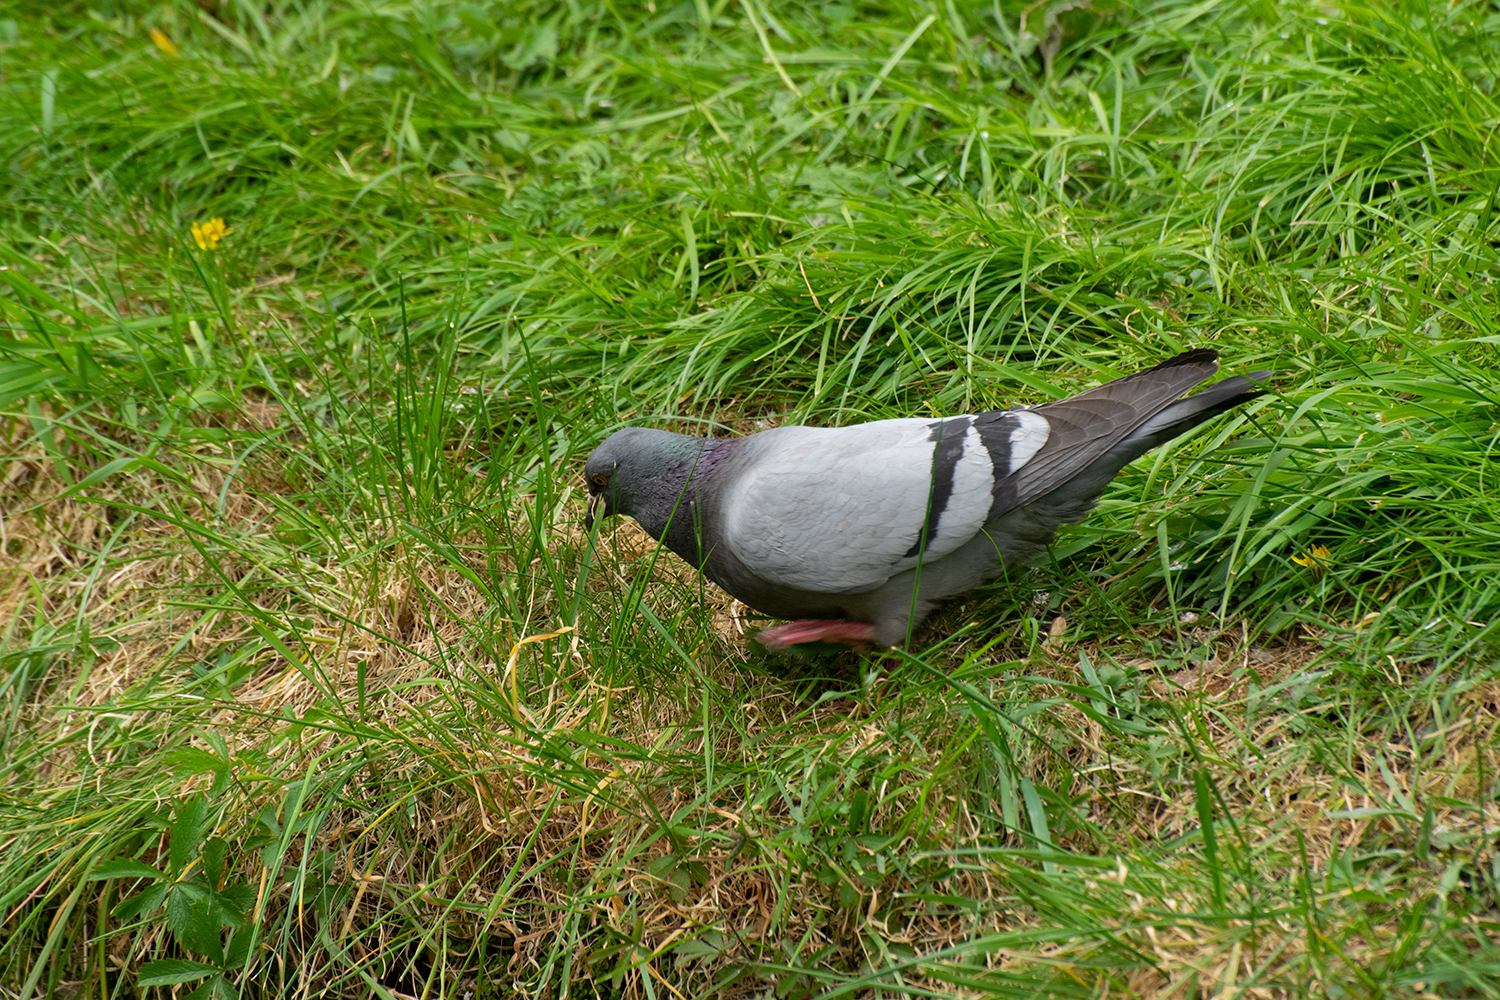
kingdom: Animalia
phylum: Chordata
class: Aves
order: Columbiformes
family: Columbidae
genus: Columba
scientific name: Columba livia
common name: Rock pigeon
